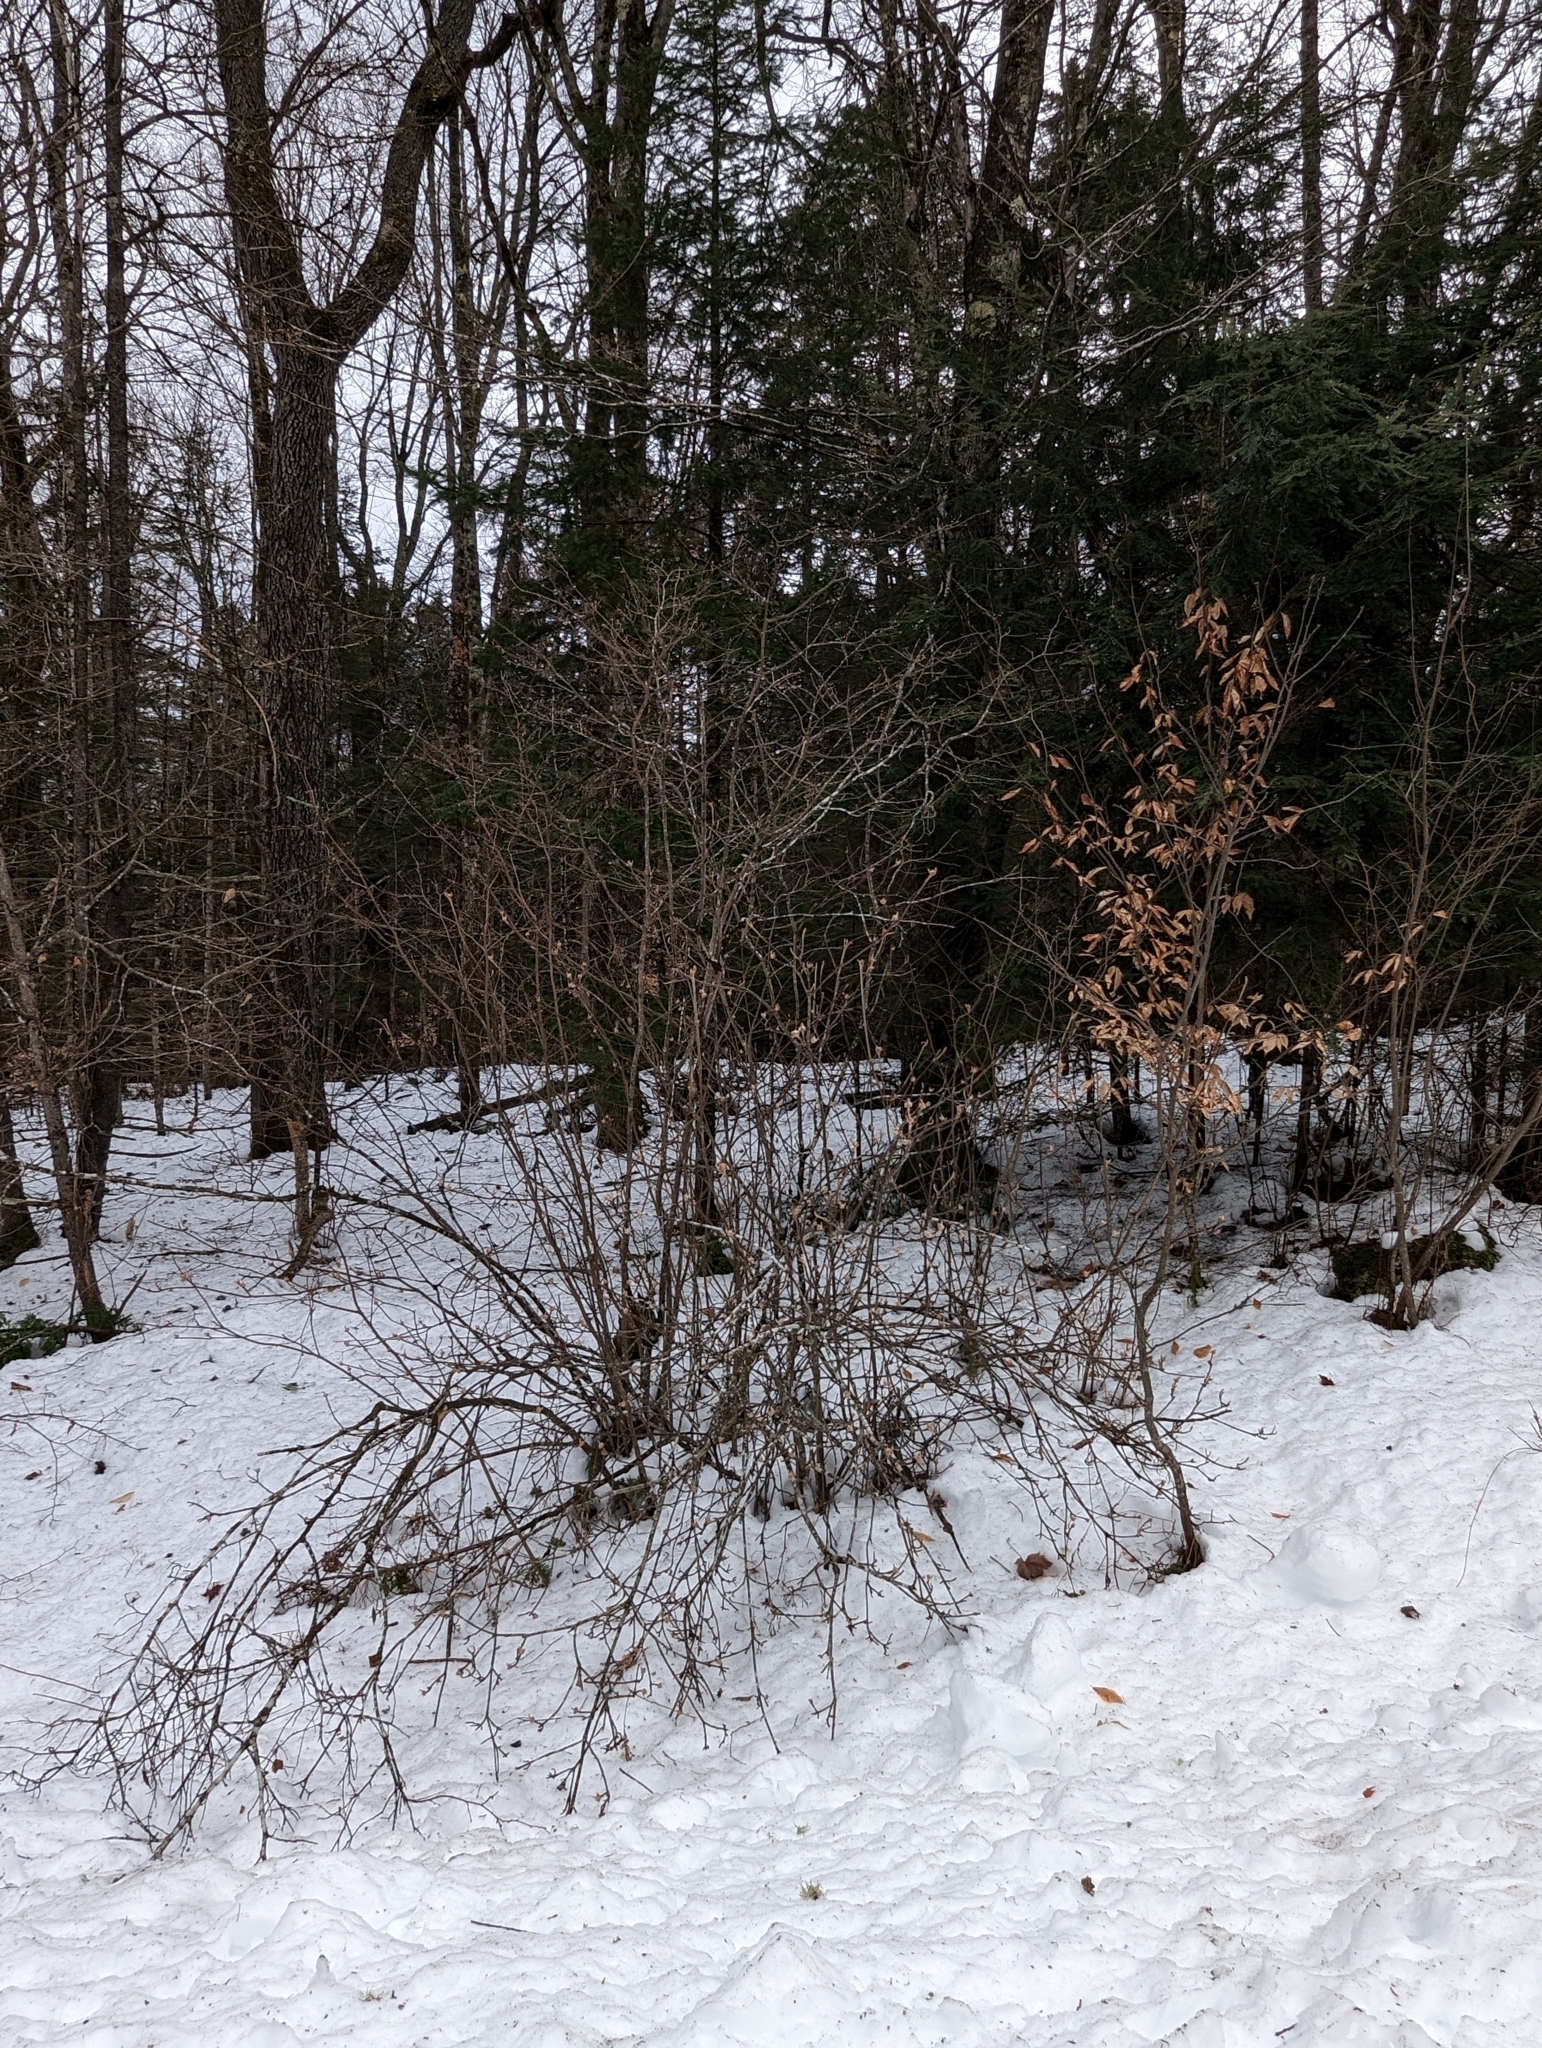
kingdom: Plantae
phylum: Tracheophyta
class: Magnoliopsida
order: Dipsacales
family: Viburnaceae
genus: Viburnum
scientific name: Viburnum lantanoides
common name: Hobblebush
